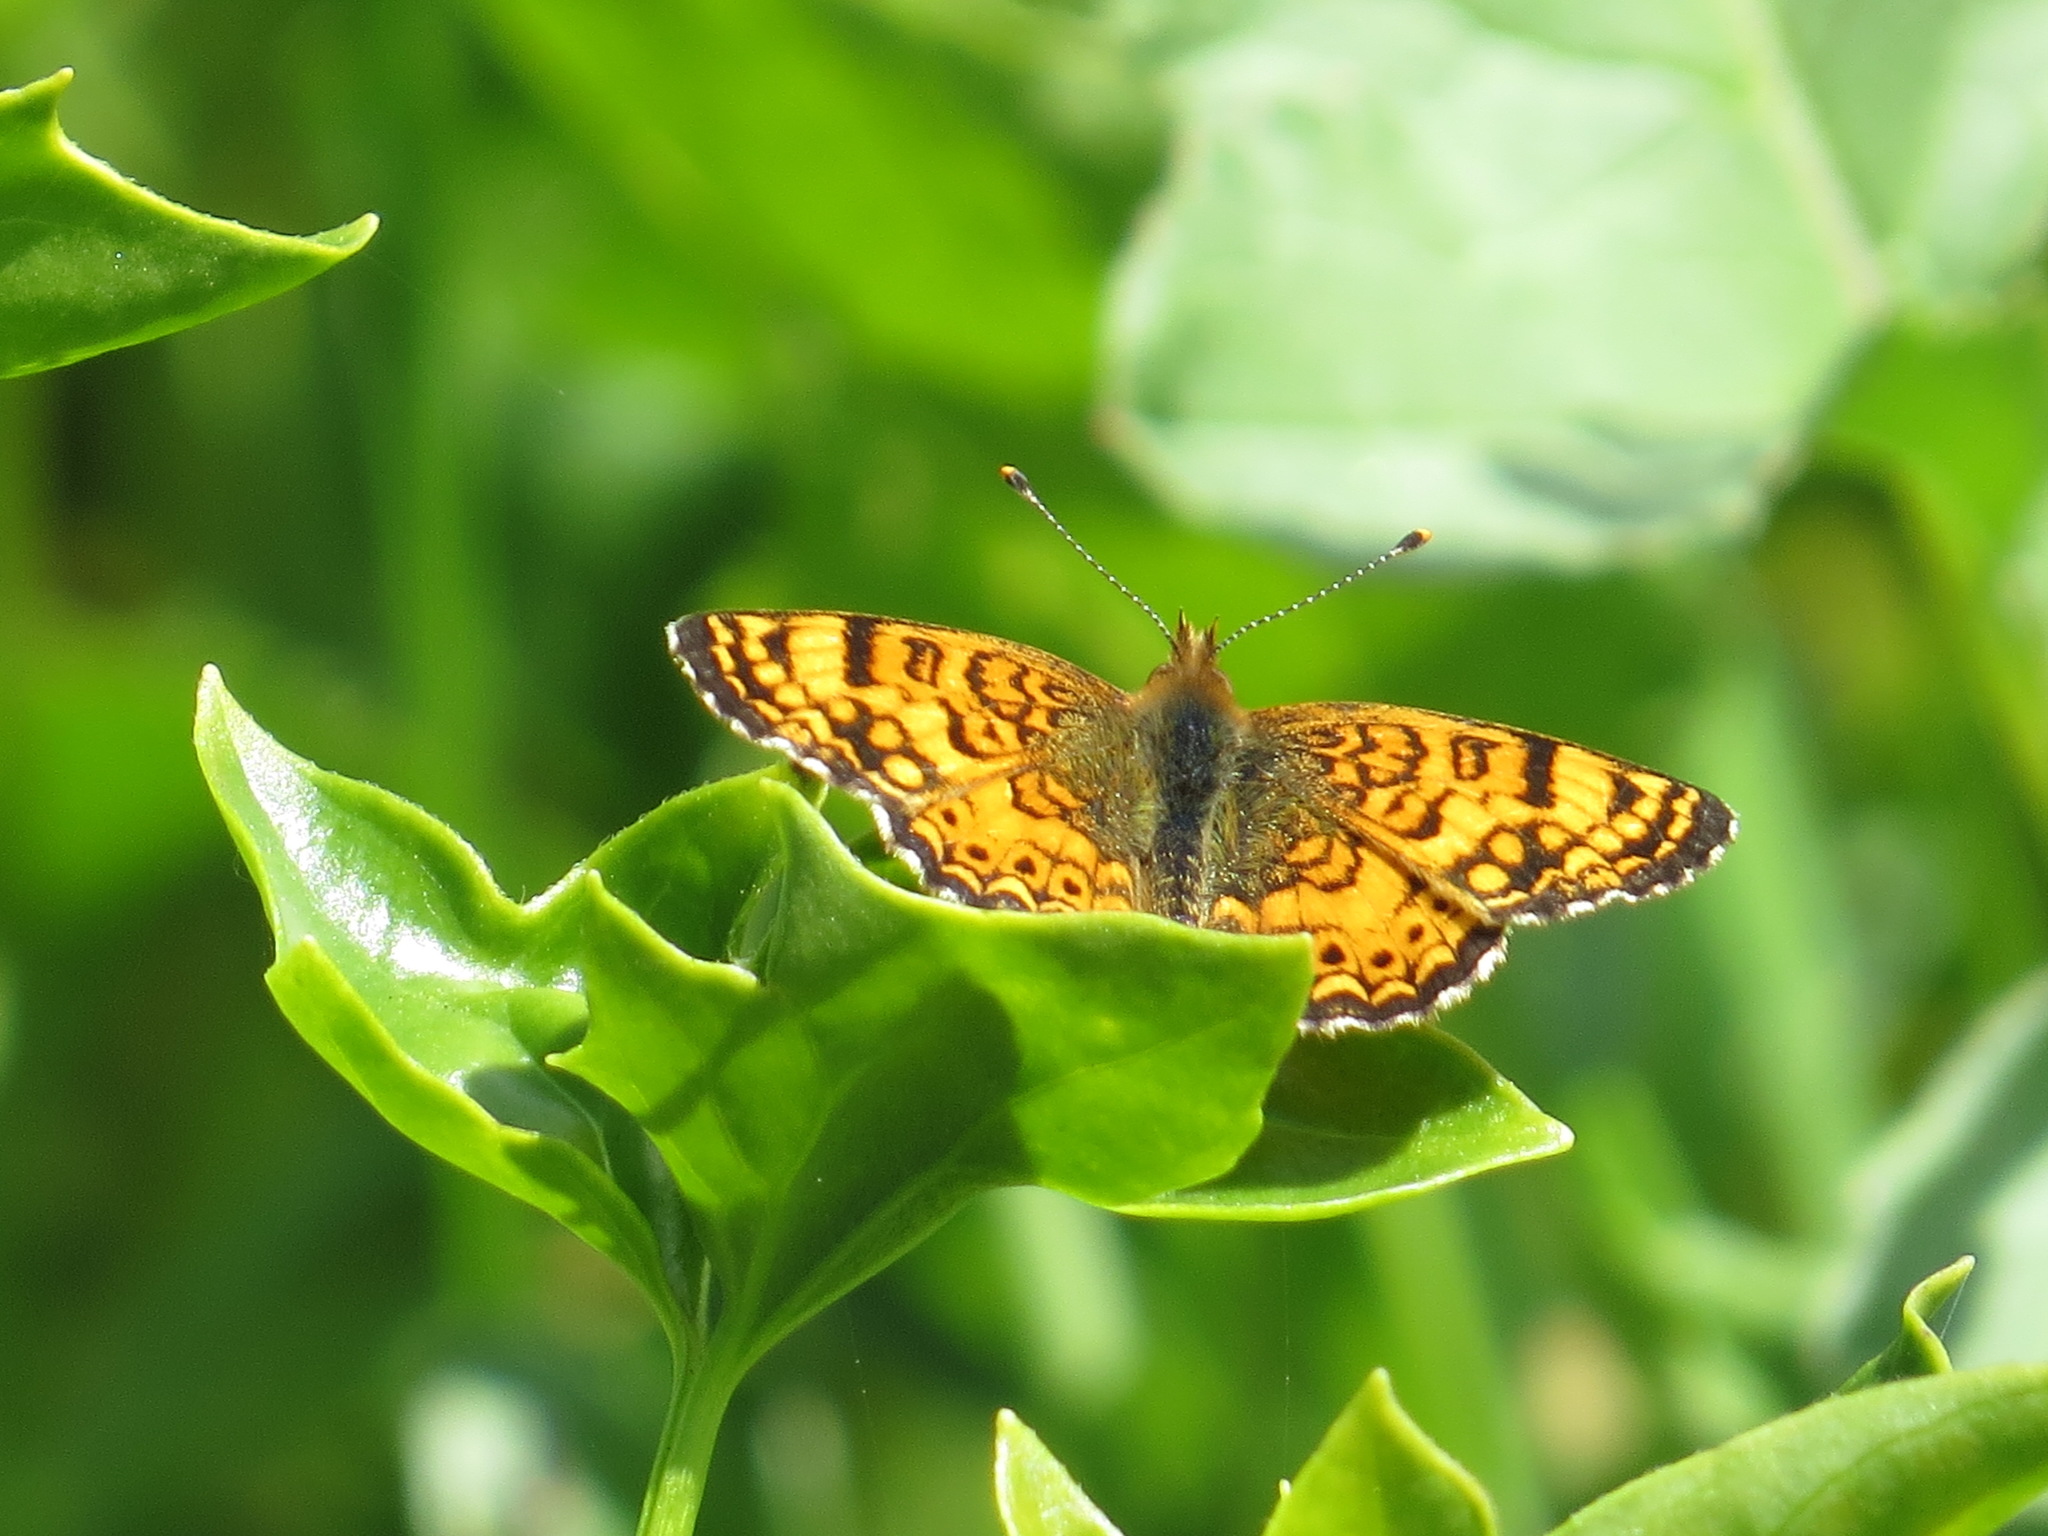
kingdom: Animalia
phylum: Arthropoda
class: Insecta
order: Lepidoptera
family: Nymphalidae
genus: Eresia
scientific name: Eresia aveyrona
